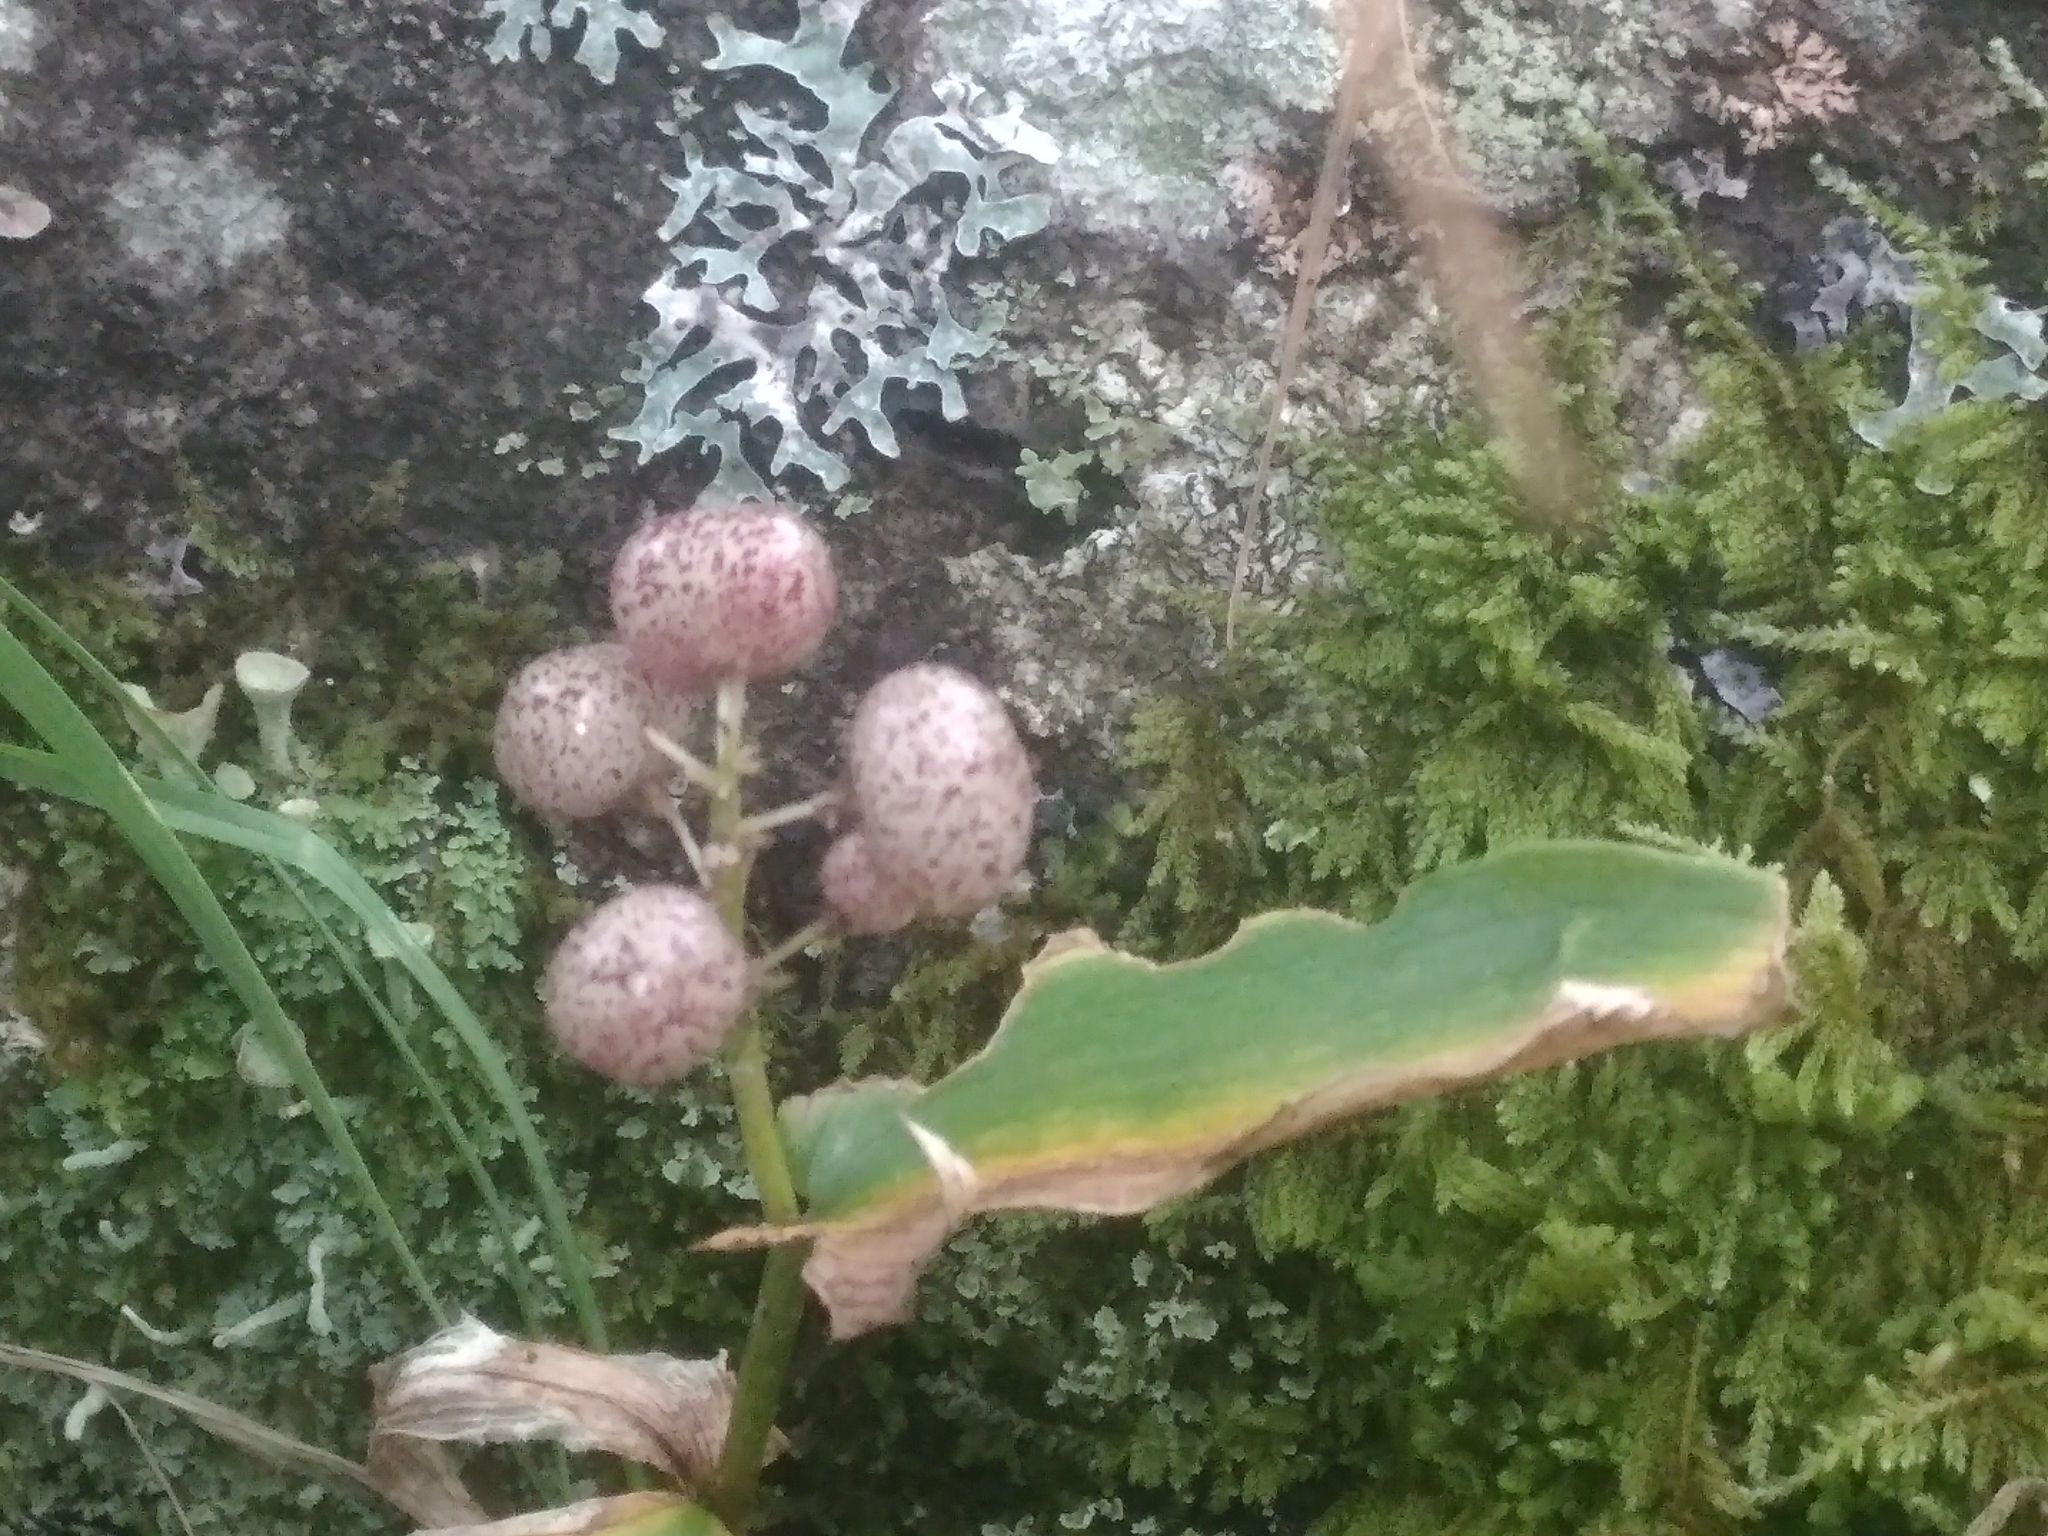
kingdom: Plantae
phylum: Tracheophyta
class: Liliopsida
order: Asparagales
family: Asparagaceae
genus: Maianthemum
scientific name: Maianthemum canadense
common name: False lily-of-the-valley
